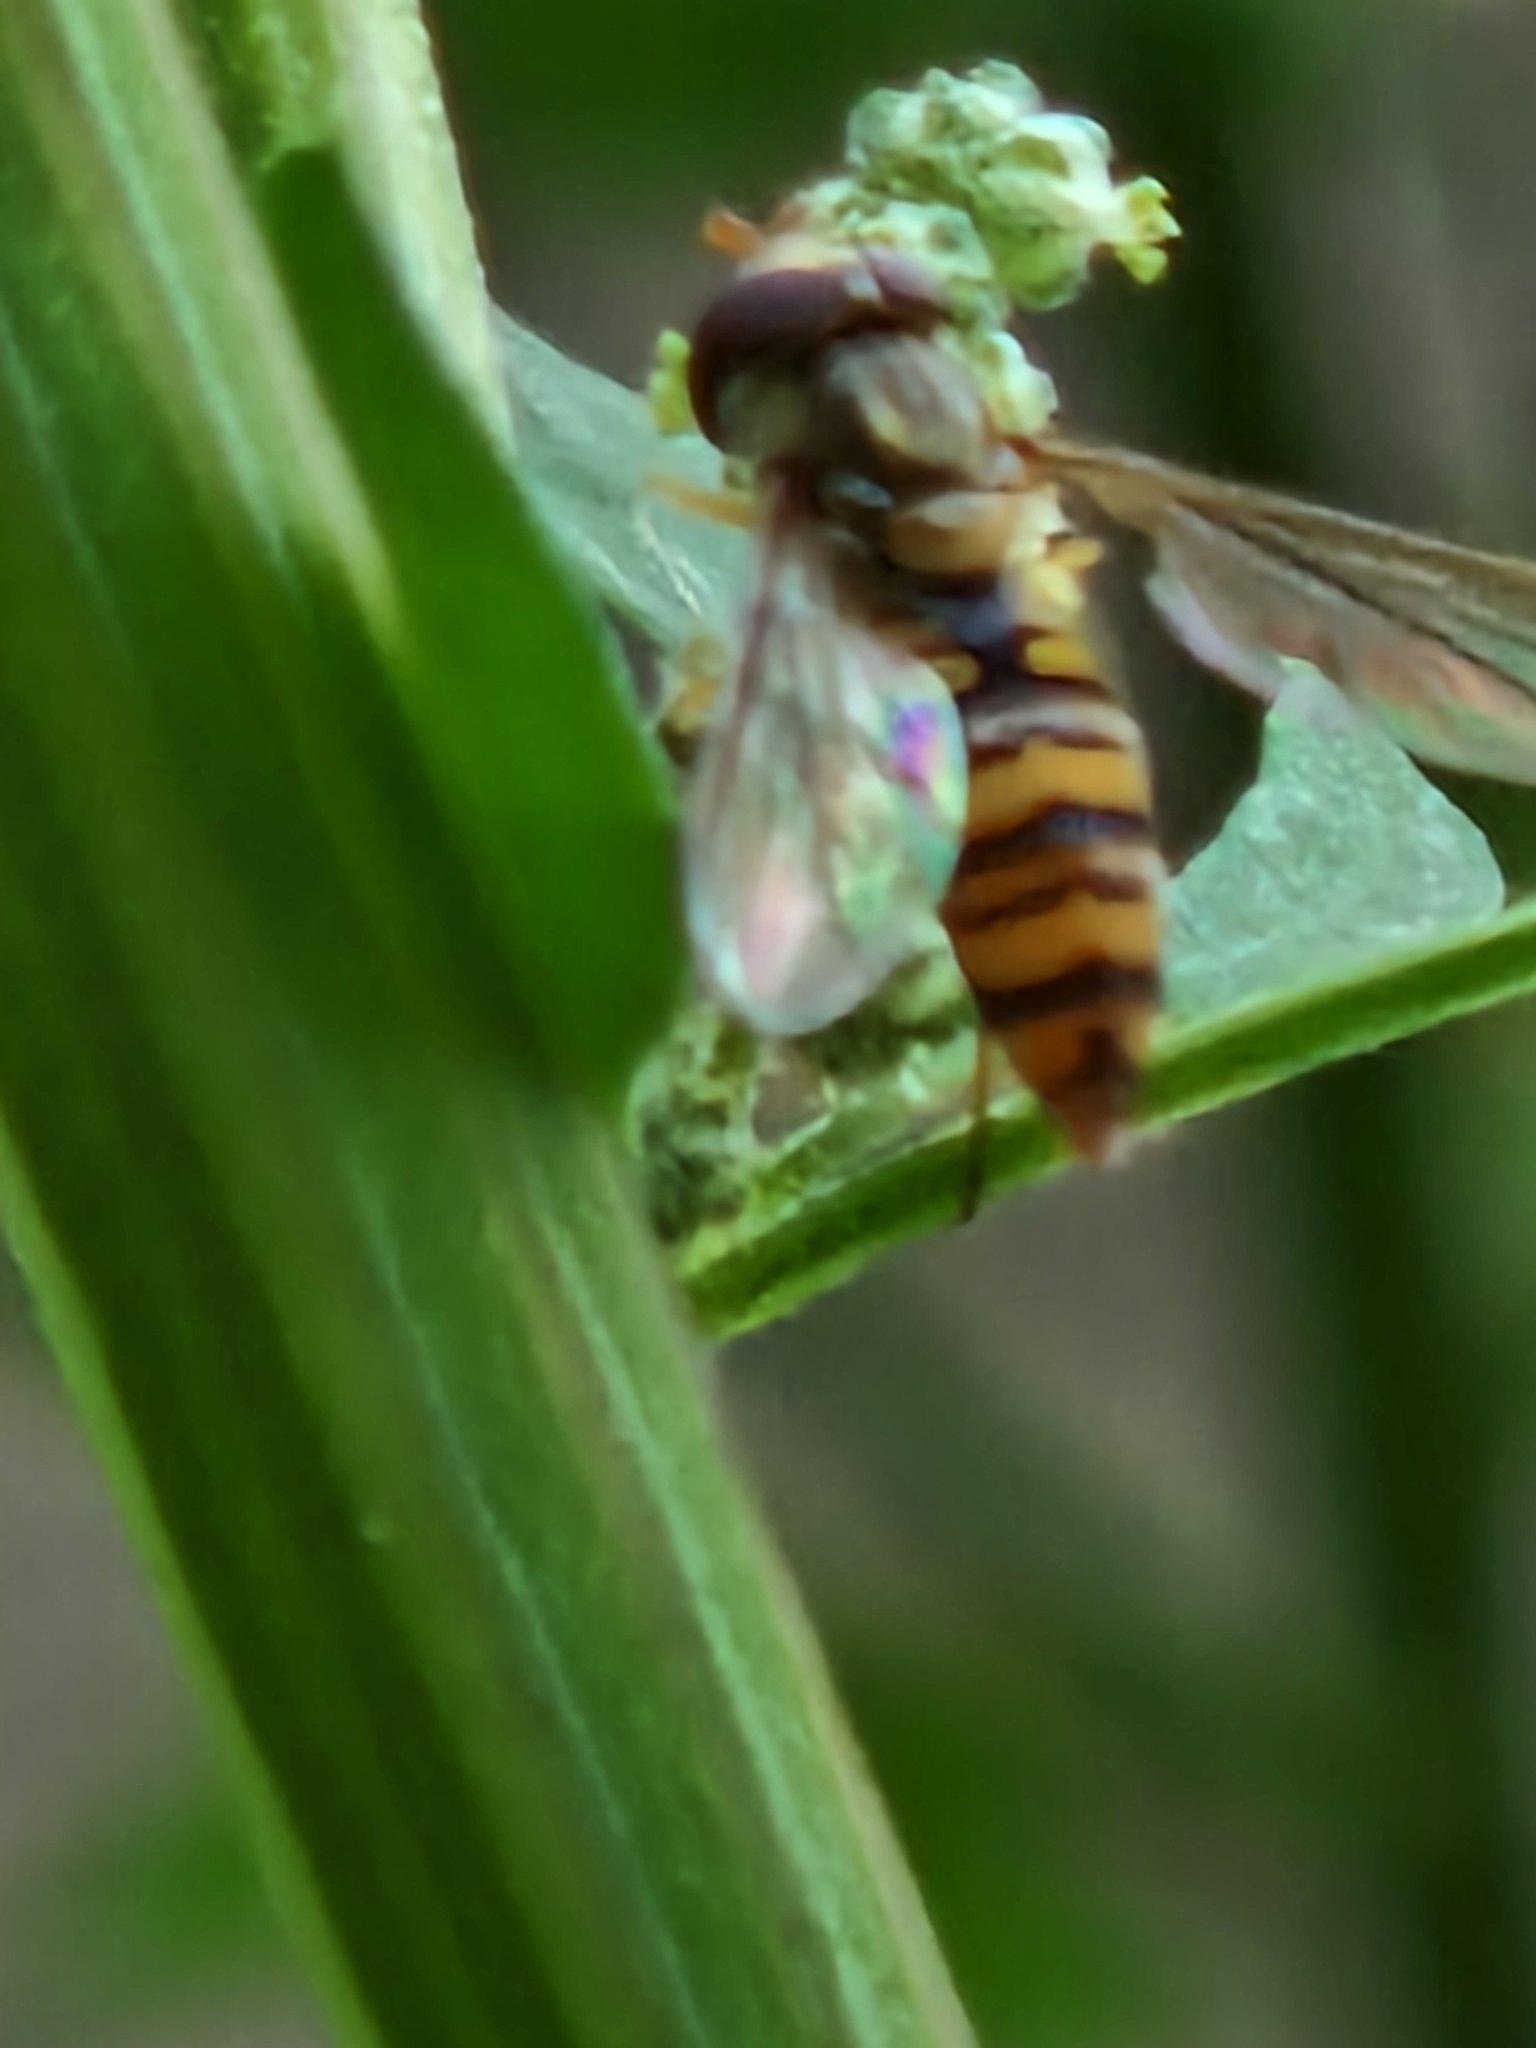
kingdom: Animalia
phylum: Arthropoda
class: Insecta
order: Diptera
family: Syrphidae
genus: Episyrphus
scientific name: Episyrphus balteatus
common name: Marmalade hoverfly
